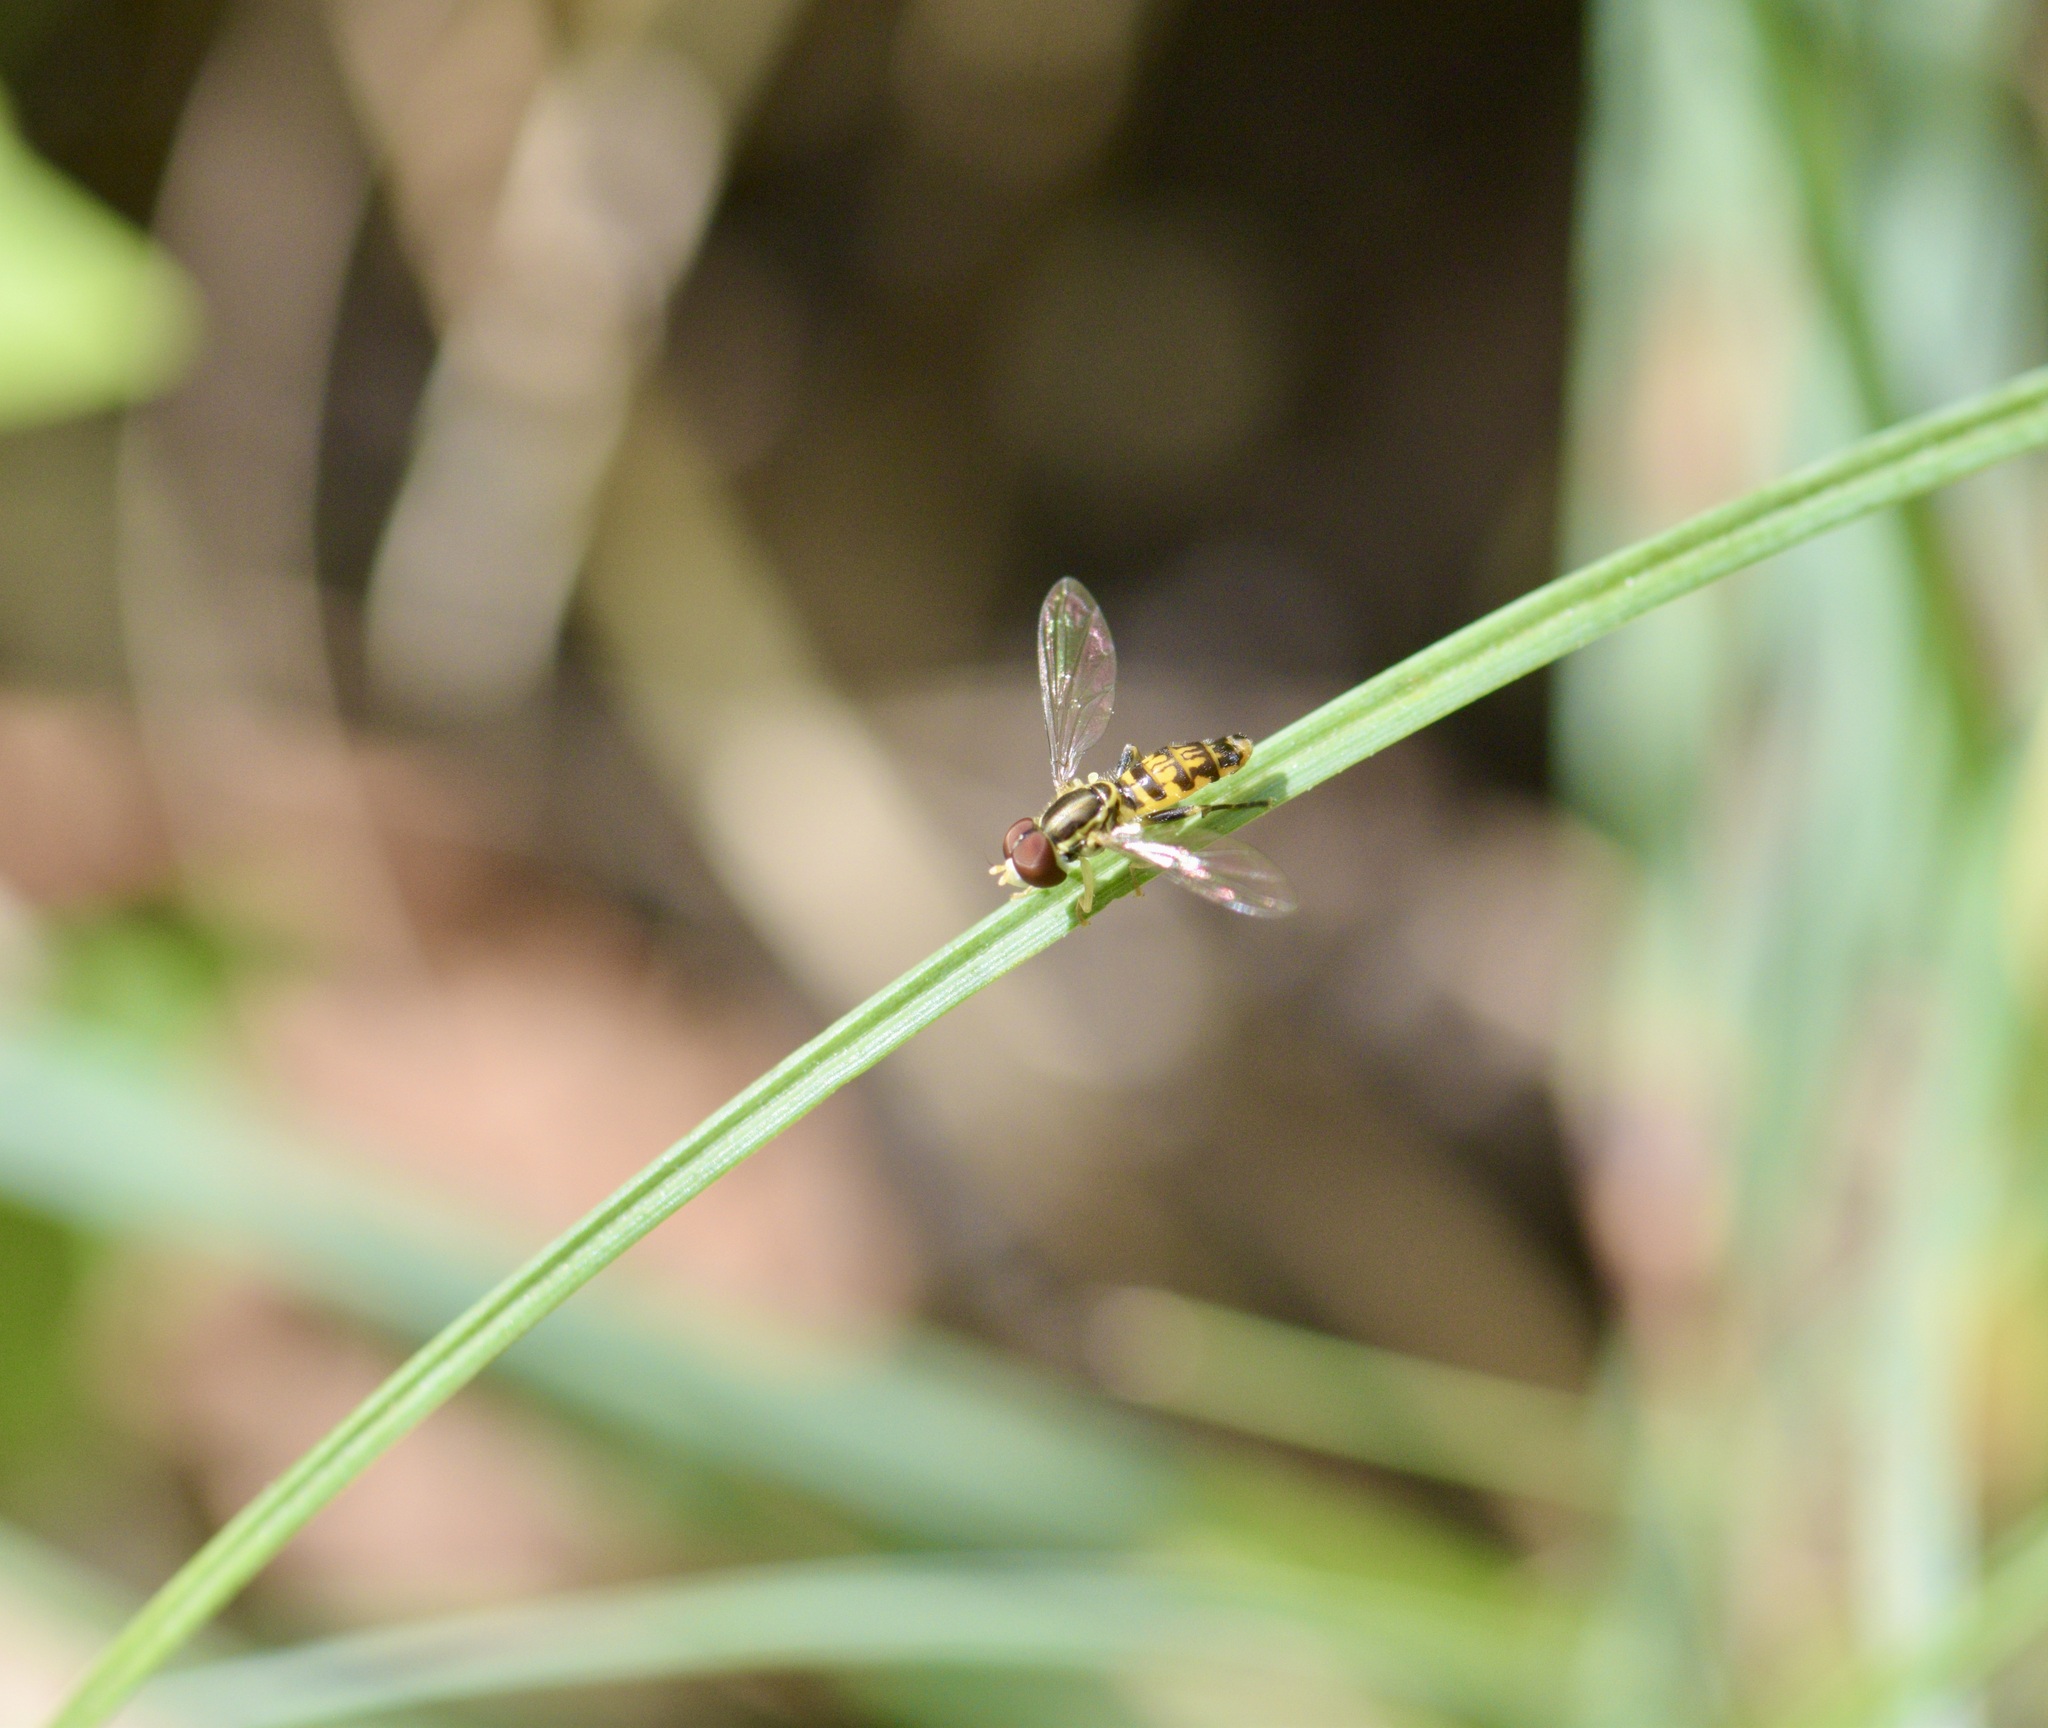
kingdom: Animalia
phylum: Arthropoda
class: Insecta
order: Diptera
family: Syrphidae
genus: Toxomerus
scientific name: Toxomerus geminatus
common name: Eastern calligrapher
